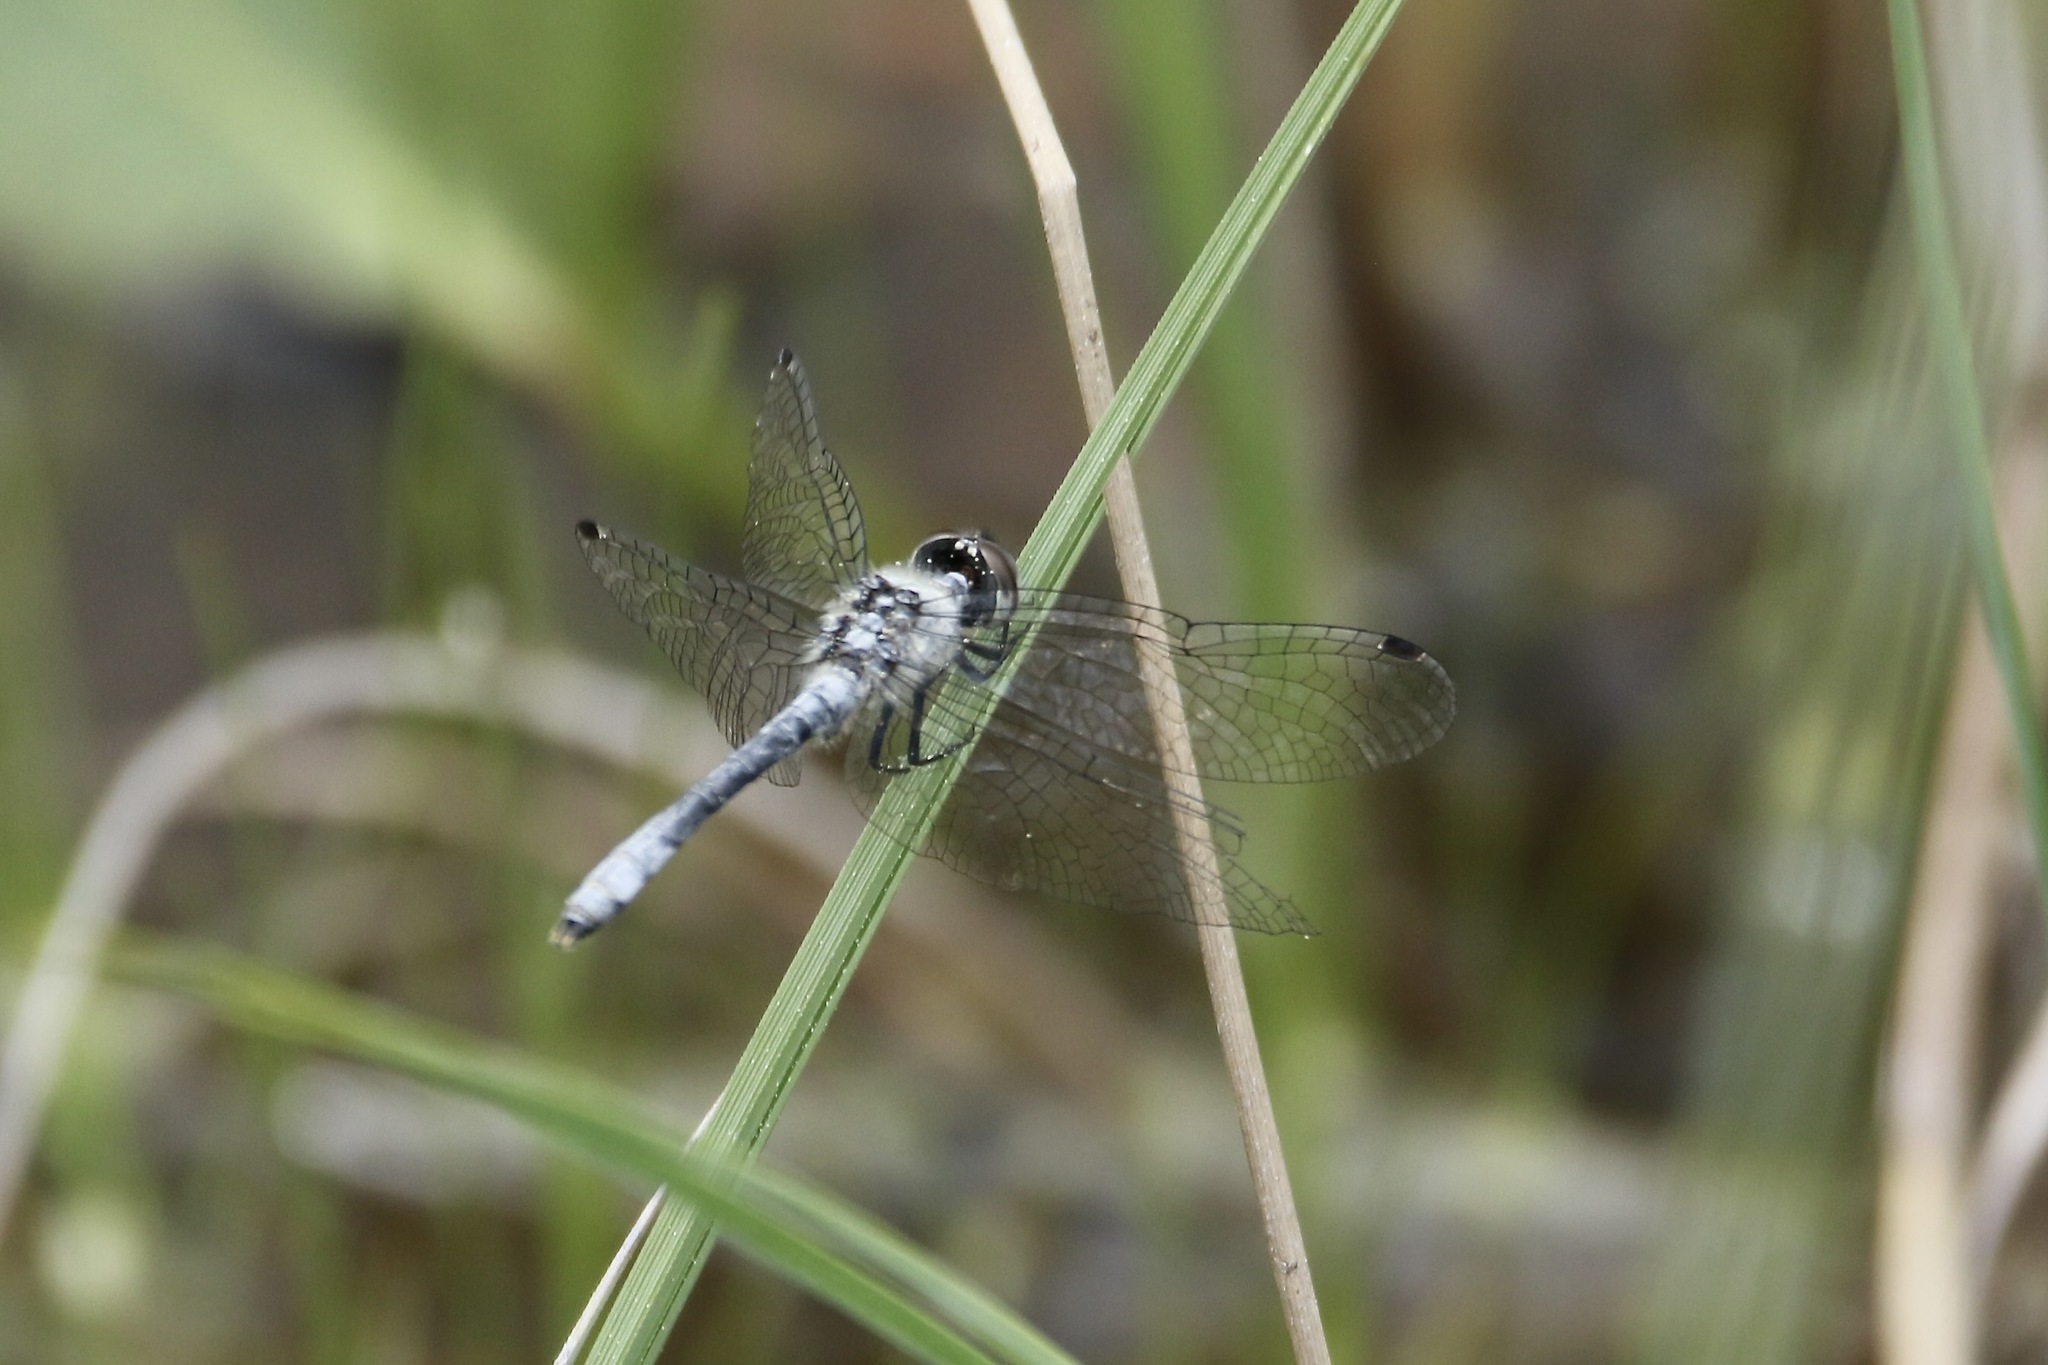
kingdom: Animalia
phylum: Arthropoda
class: Insecta
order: Odonata
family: Libellulidae
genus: Nannothemis
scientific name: Nannothemis bella
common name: Elfin skimmer
